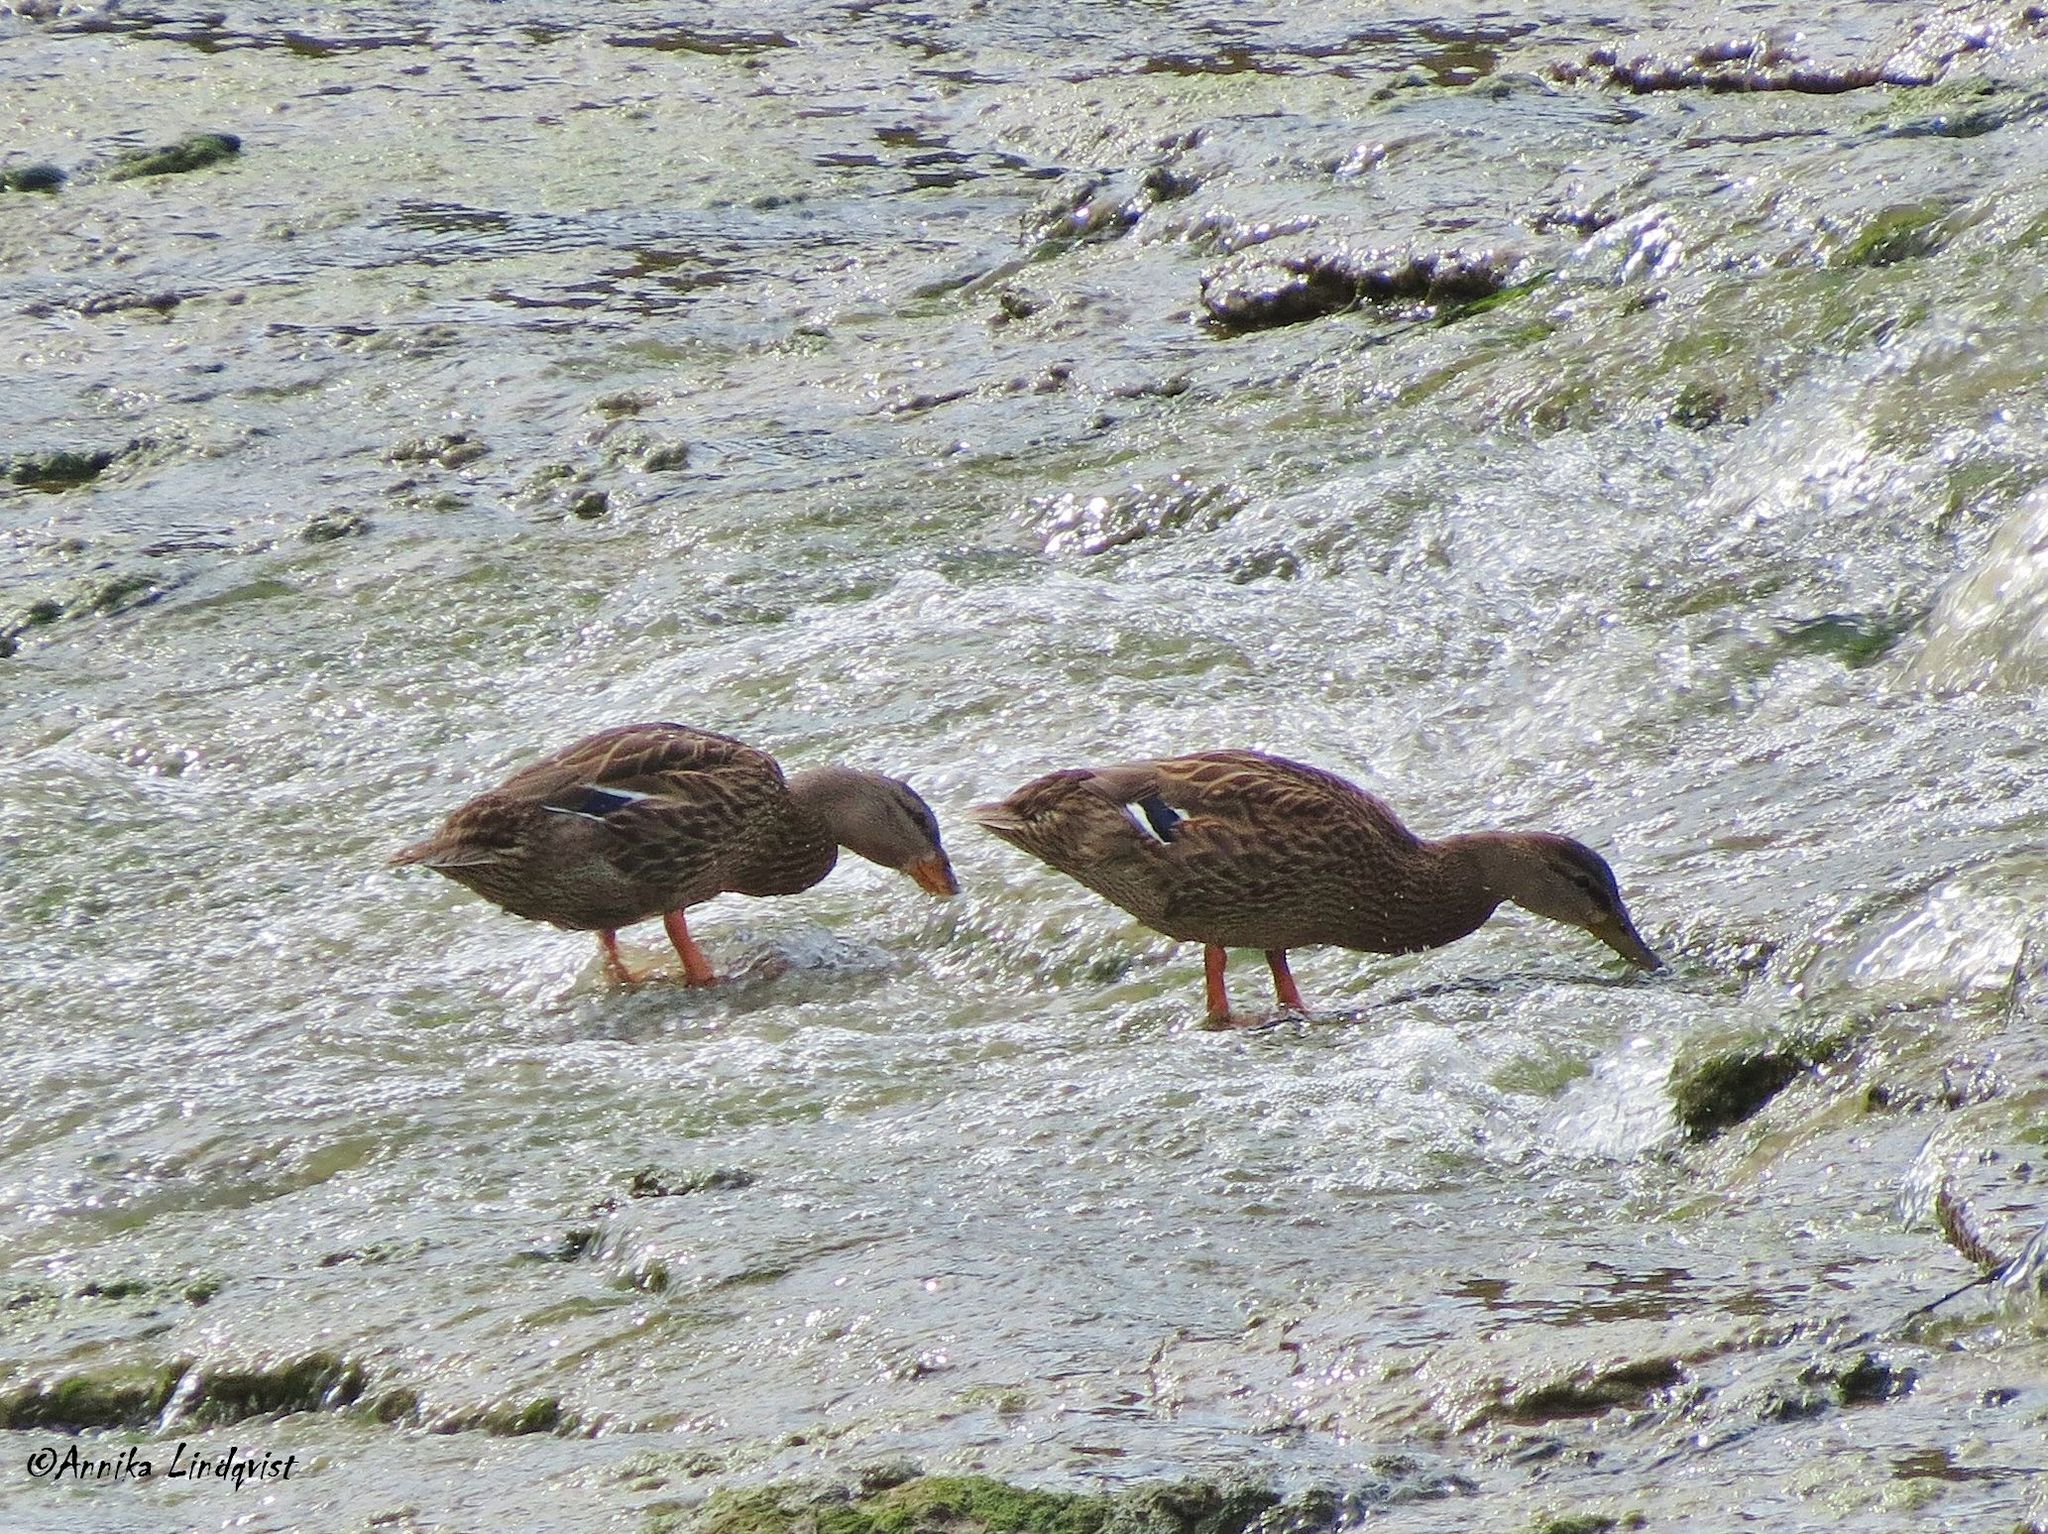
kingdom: Animalia
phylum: Chordata
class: Aves
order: Anseriformes
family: Anatidae
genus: Anas
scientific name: Anas platyrhynchos
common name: Mallard
